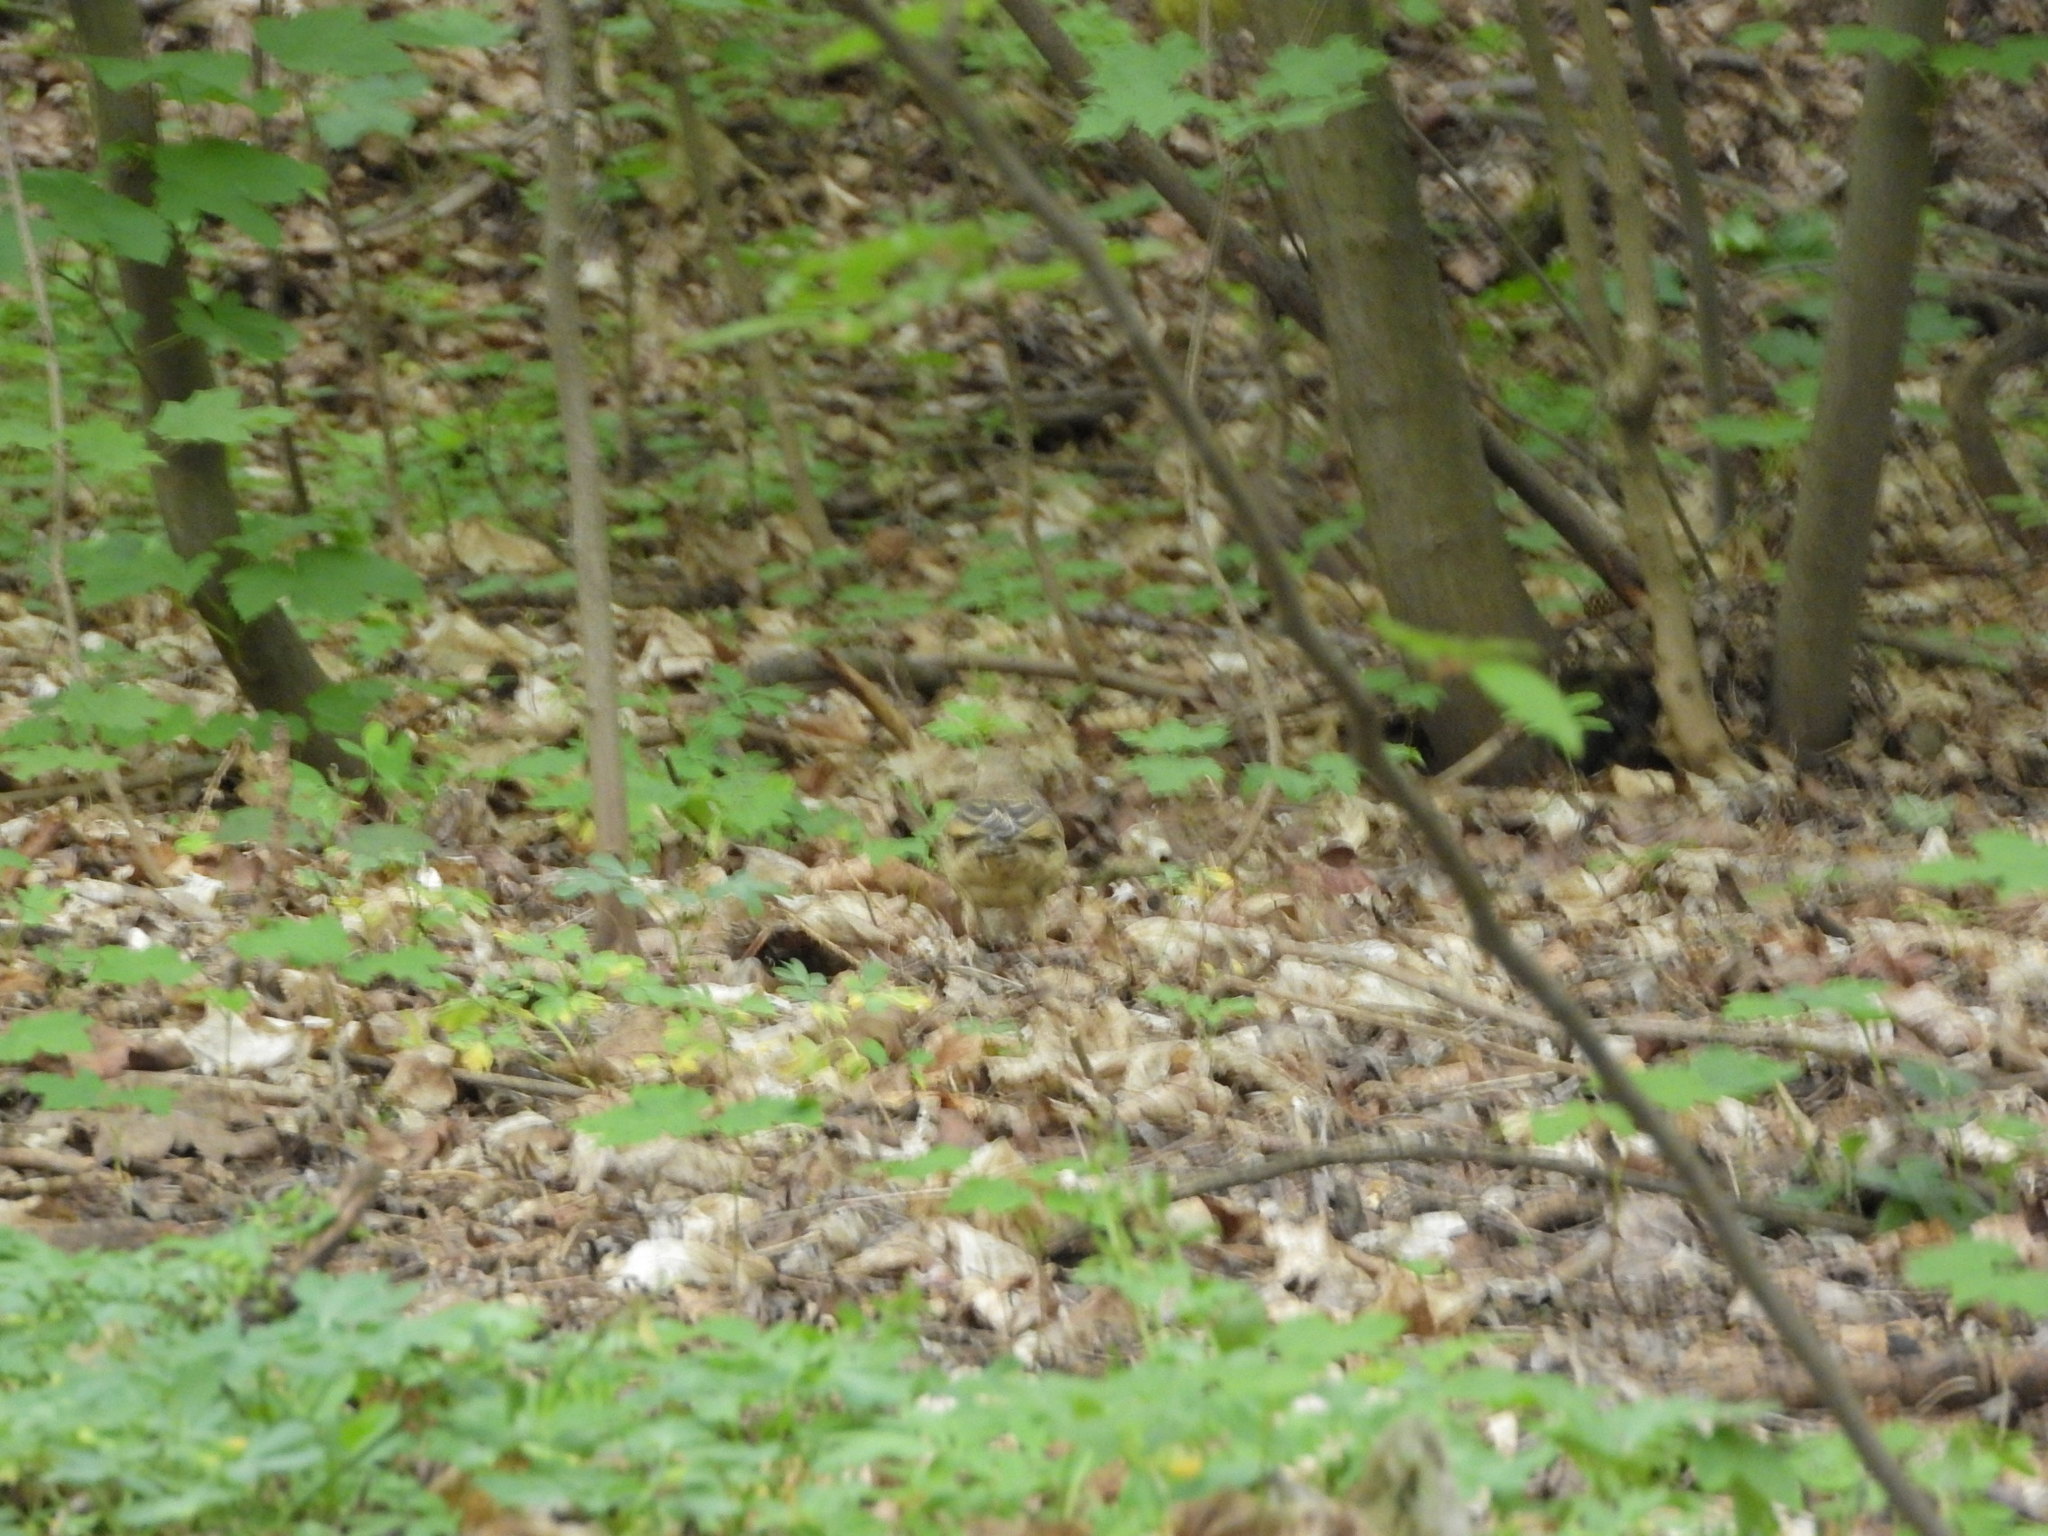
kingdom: Animalia
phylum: Chordata
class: Aves
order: Passeriformes
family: Turdidae
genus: Turdus
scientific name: Turdus philomelos
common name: Song thrush
